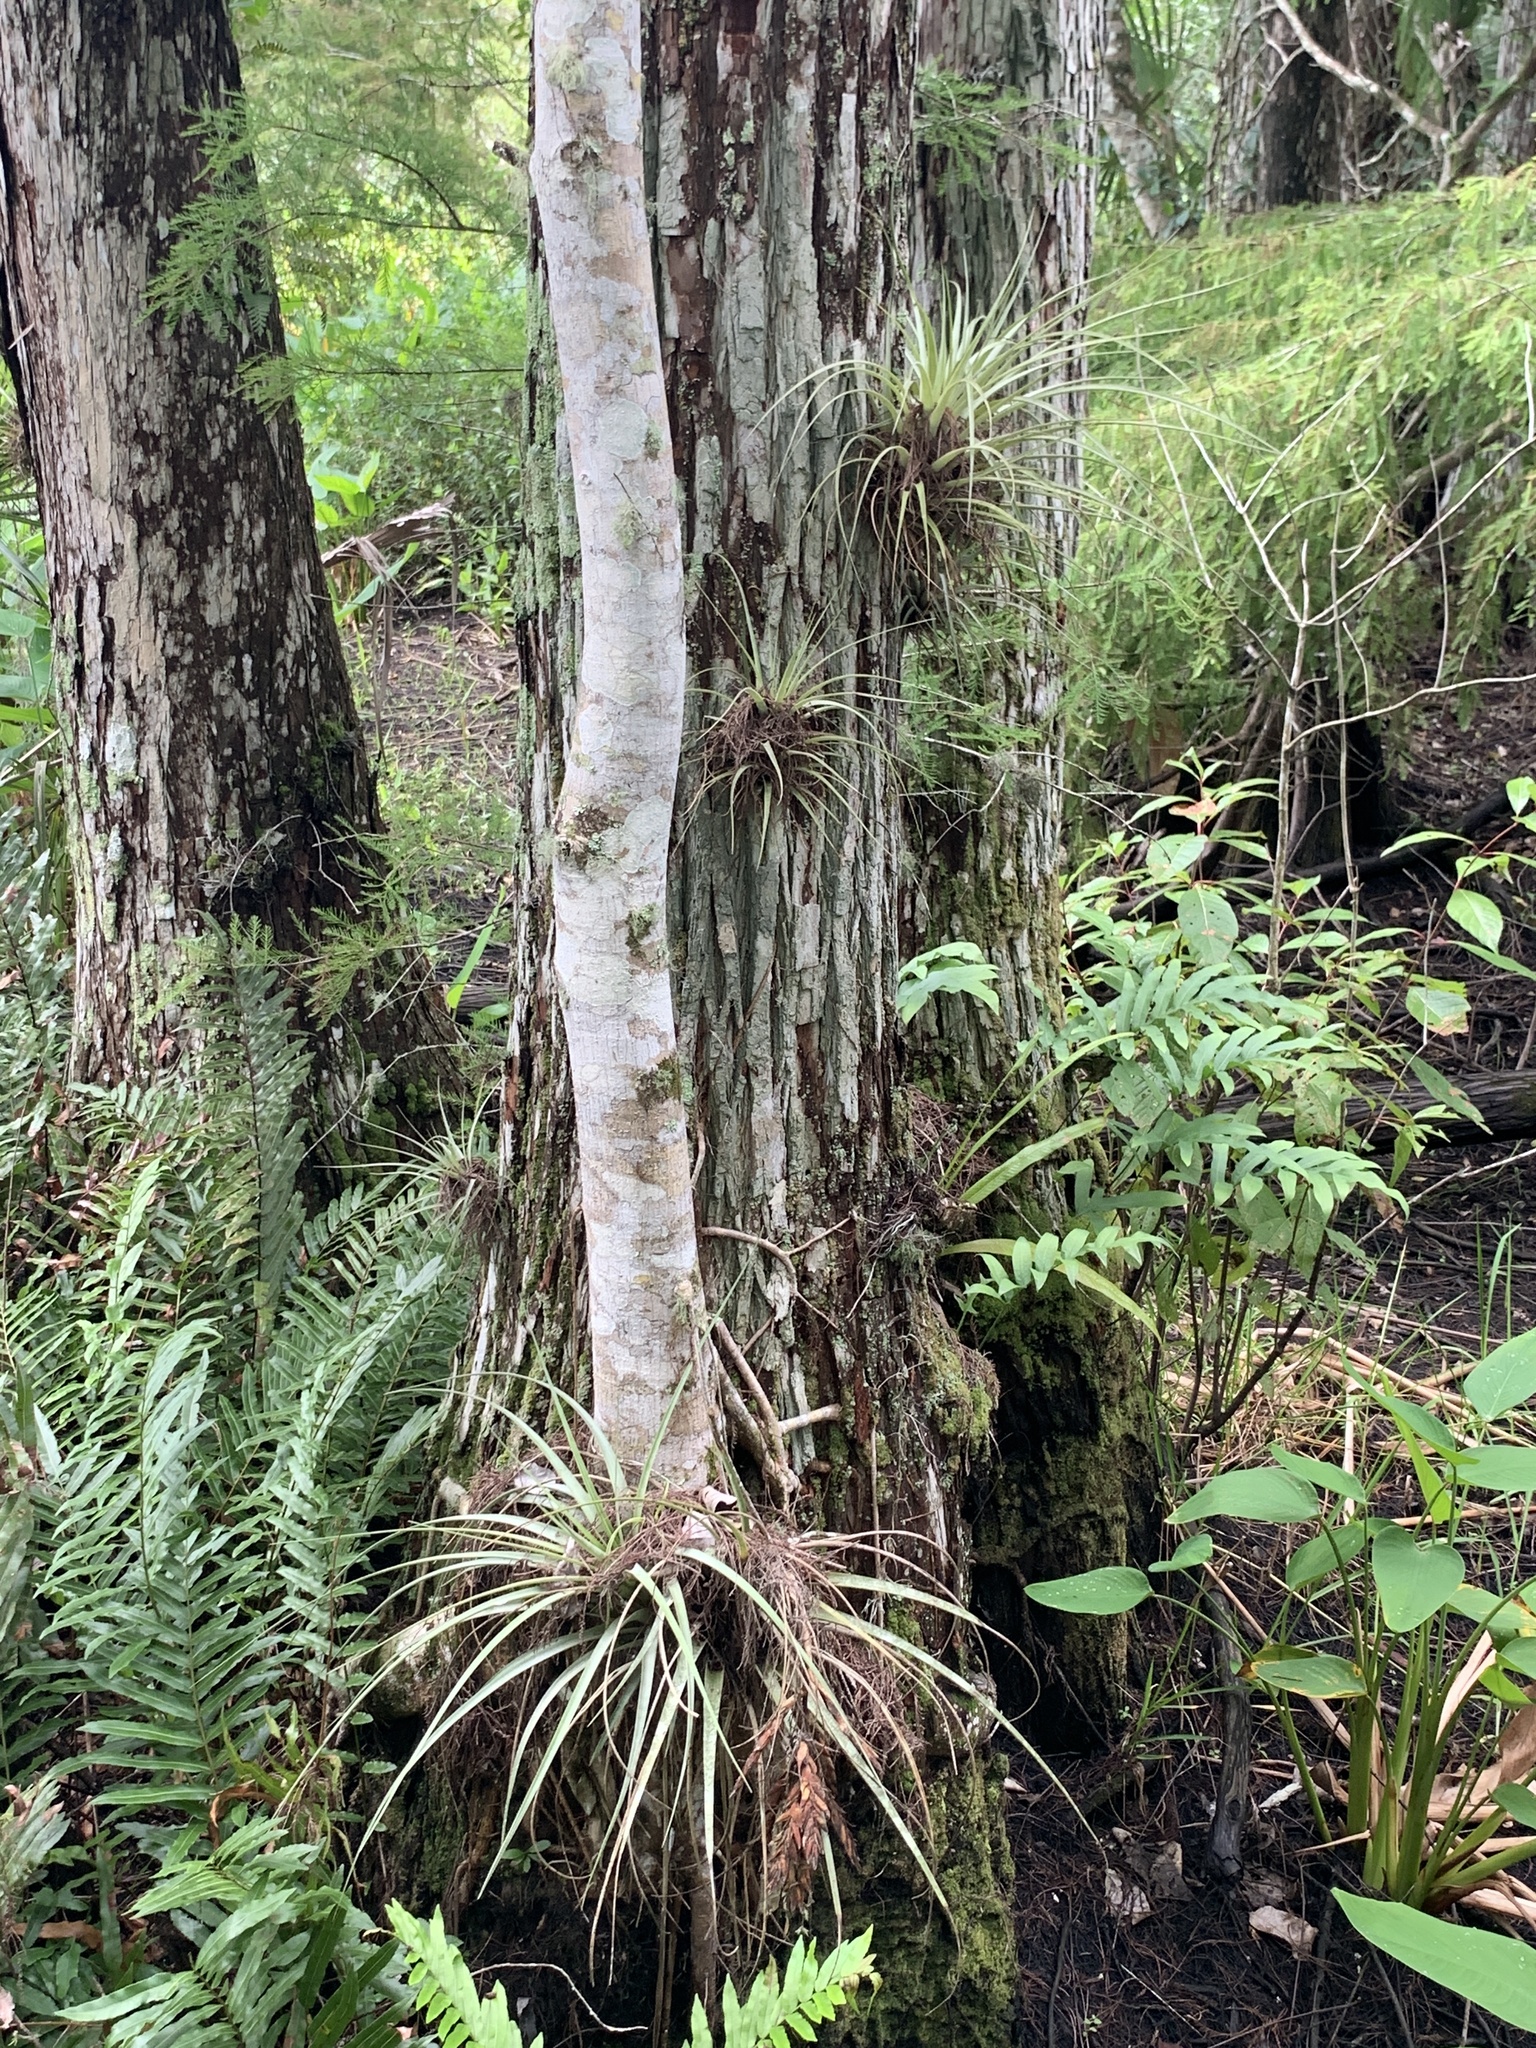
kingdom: Plantae
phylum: Tracheophyta
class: Liliopsida
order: Poales
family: Bromeliaceae
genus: Tillandsia
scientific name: Tillandsia fasciculata
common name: Giant airplant
